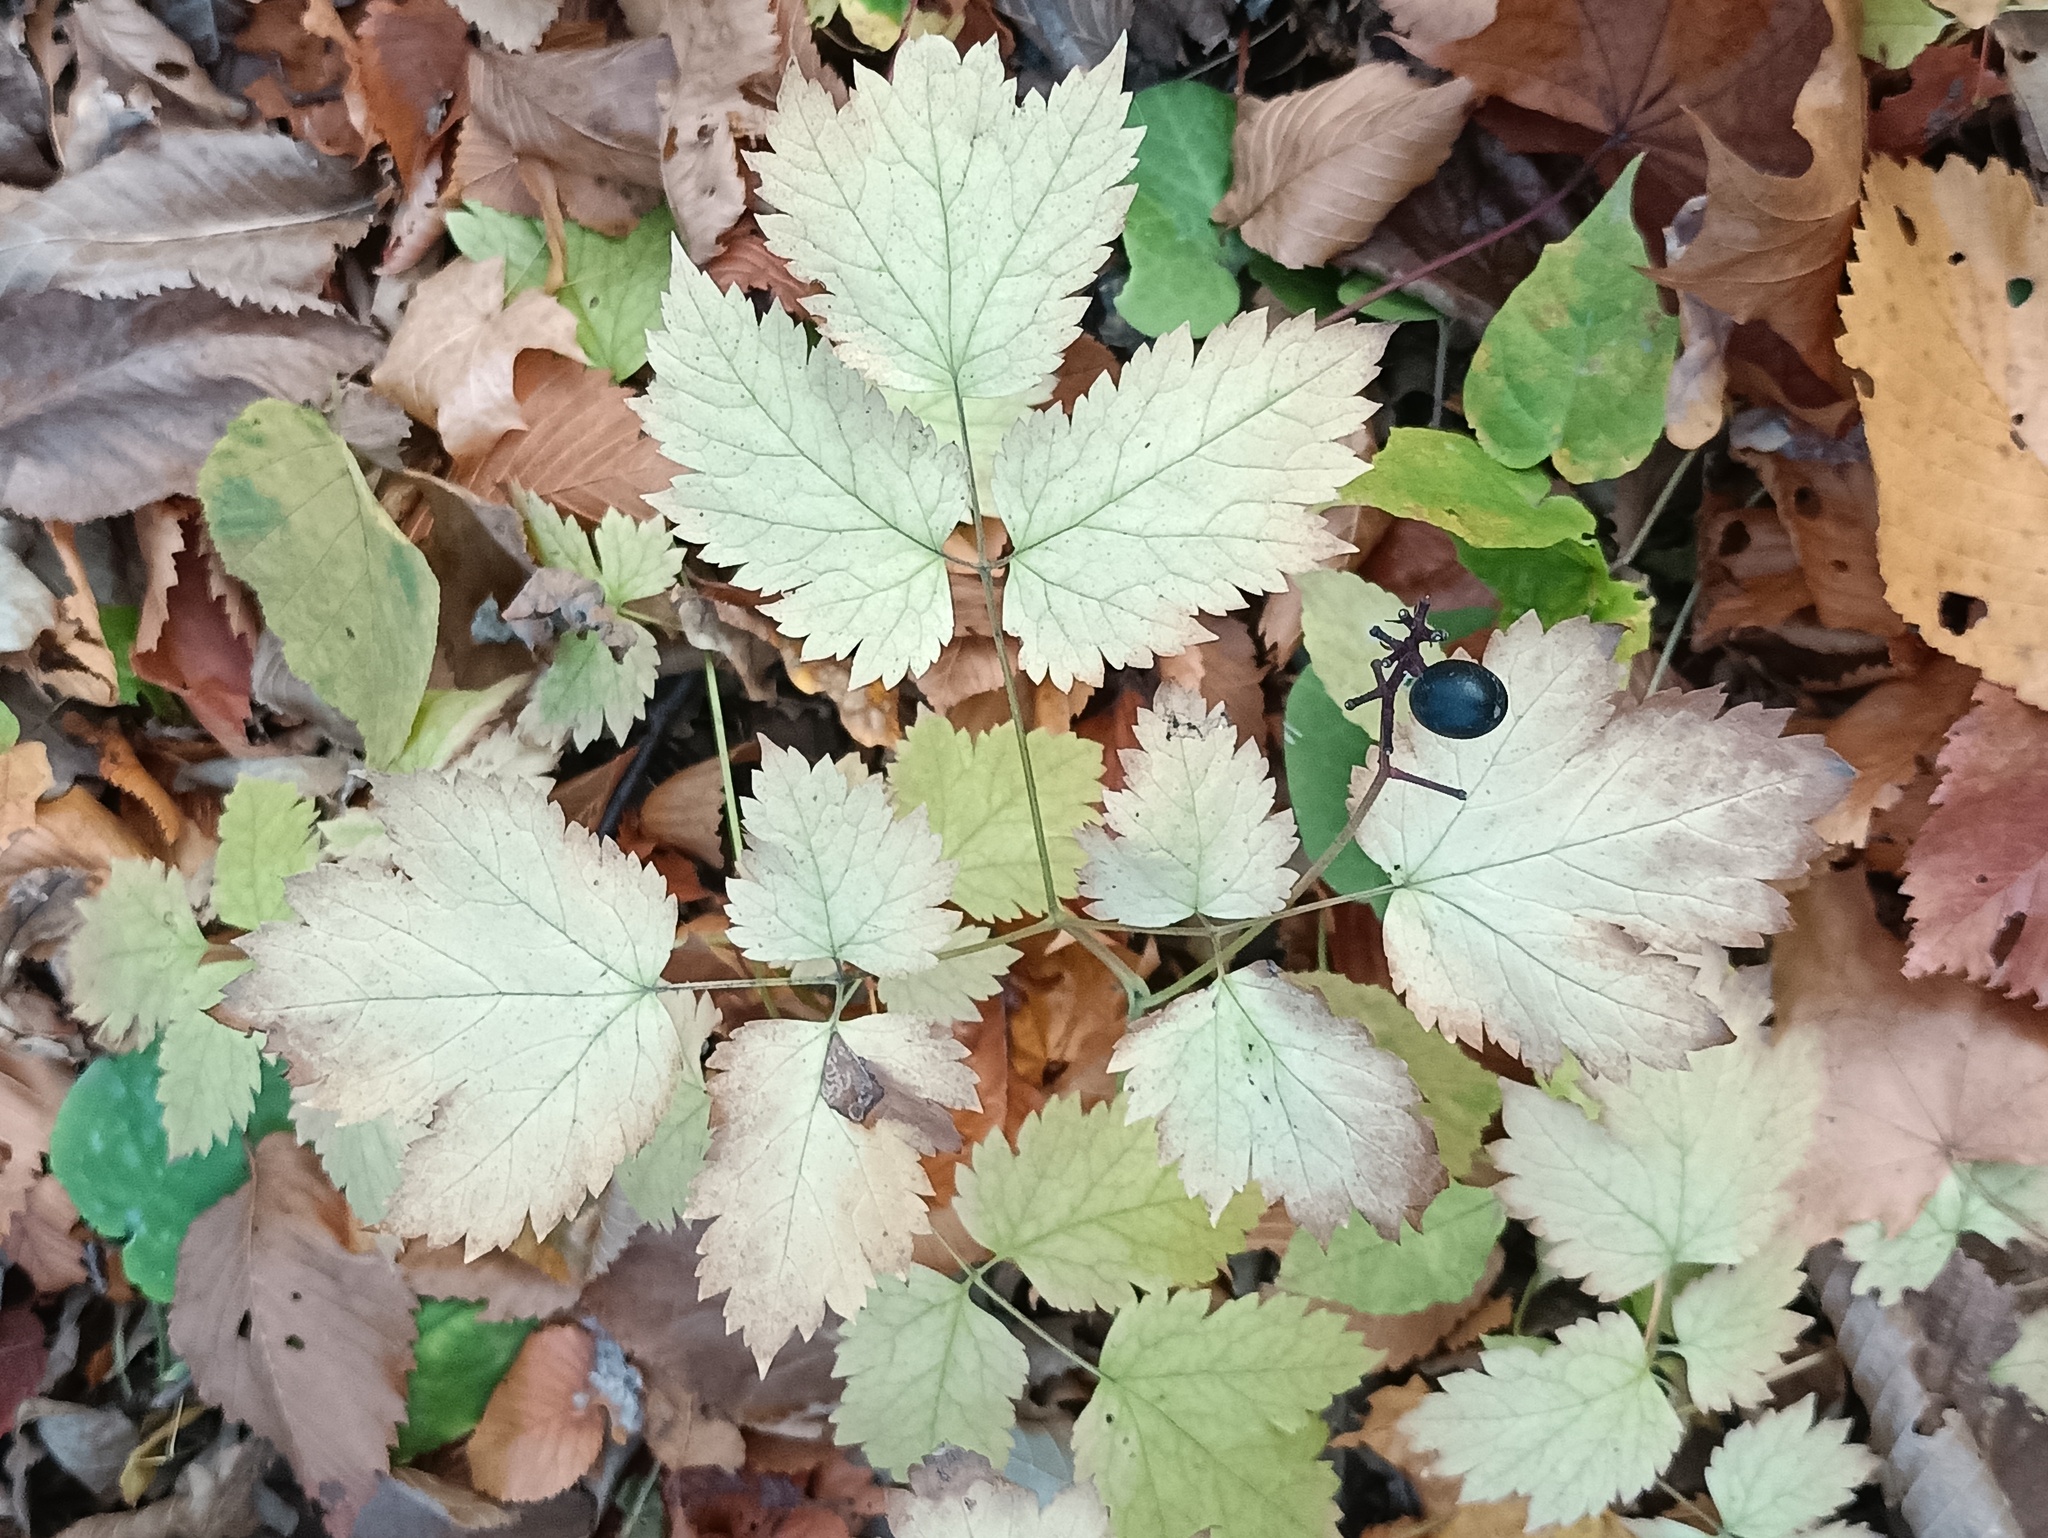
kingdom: Plantae
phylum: Tracheophyta
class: Magnoliopsida
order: Ranunculales
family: Ranunculaceae
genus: Actaea
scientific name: Actaea spicata
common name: Baneberry
